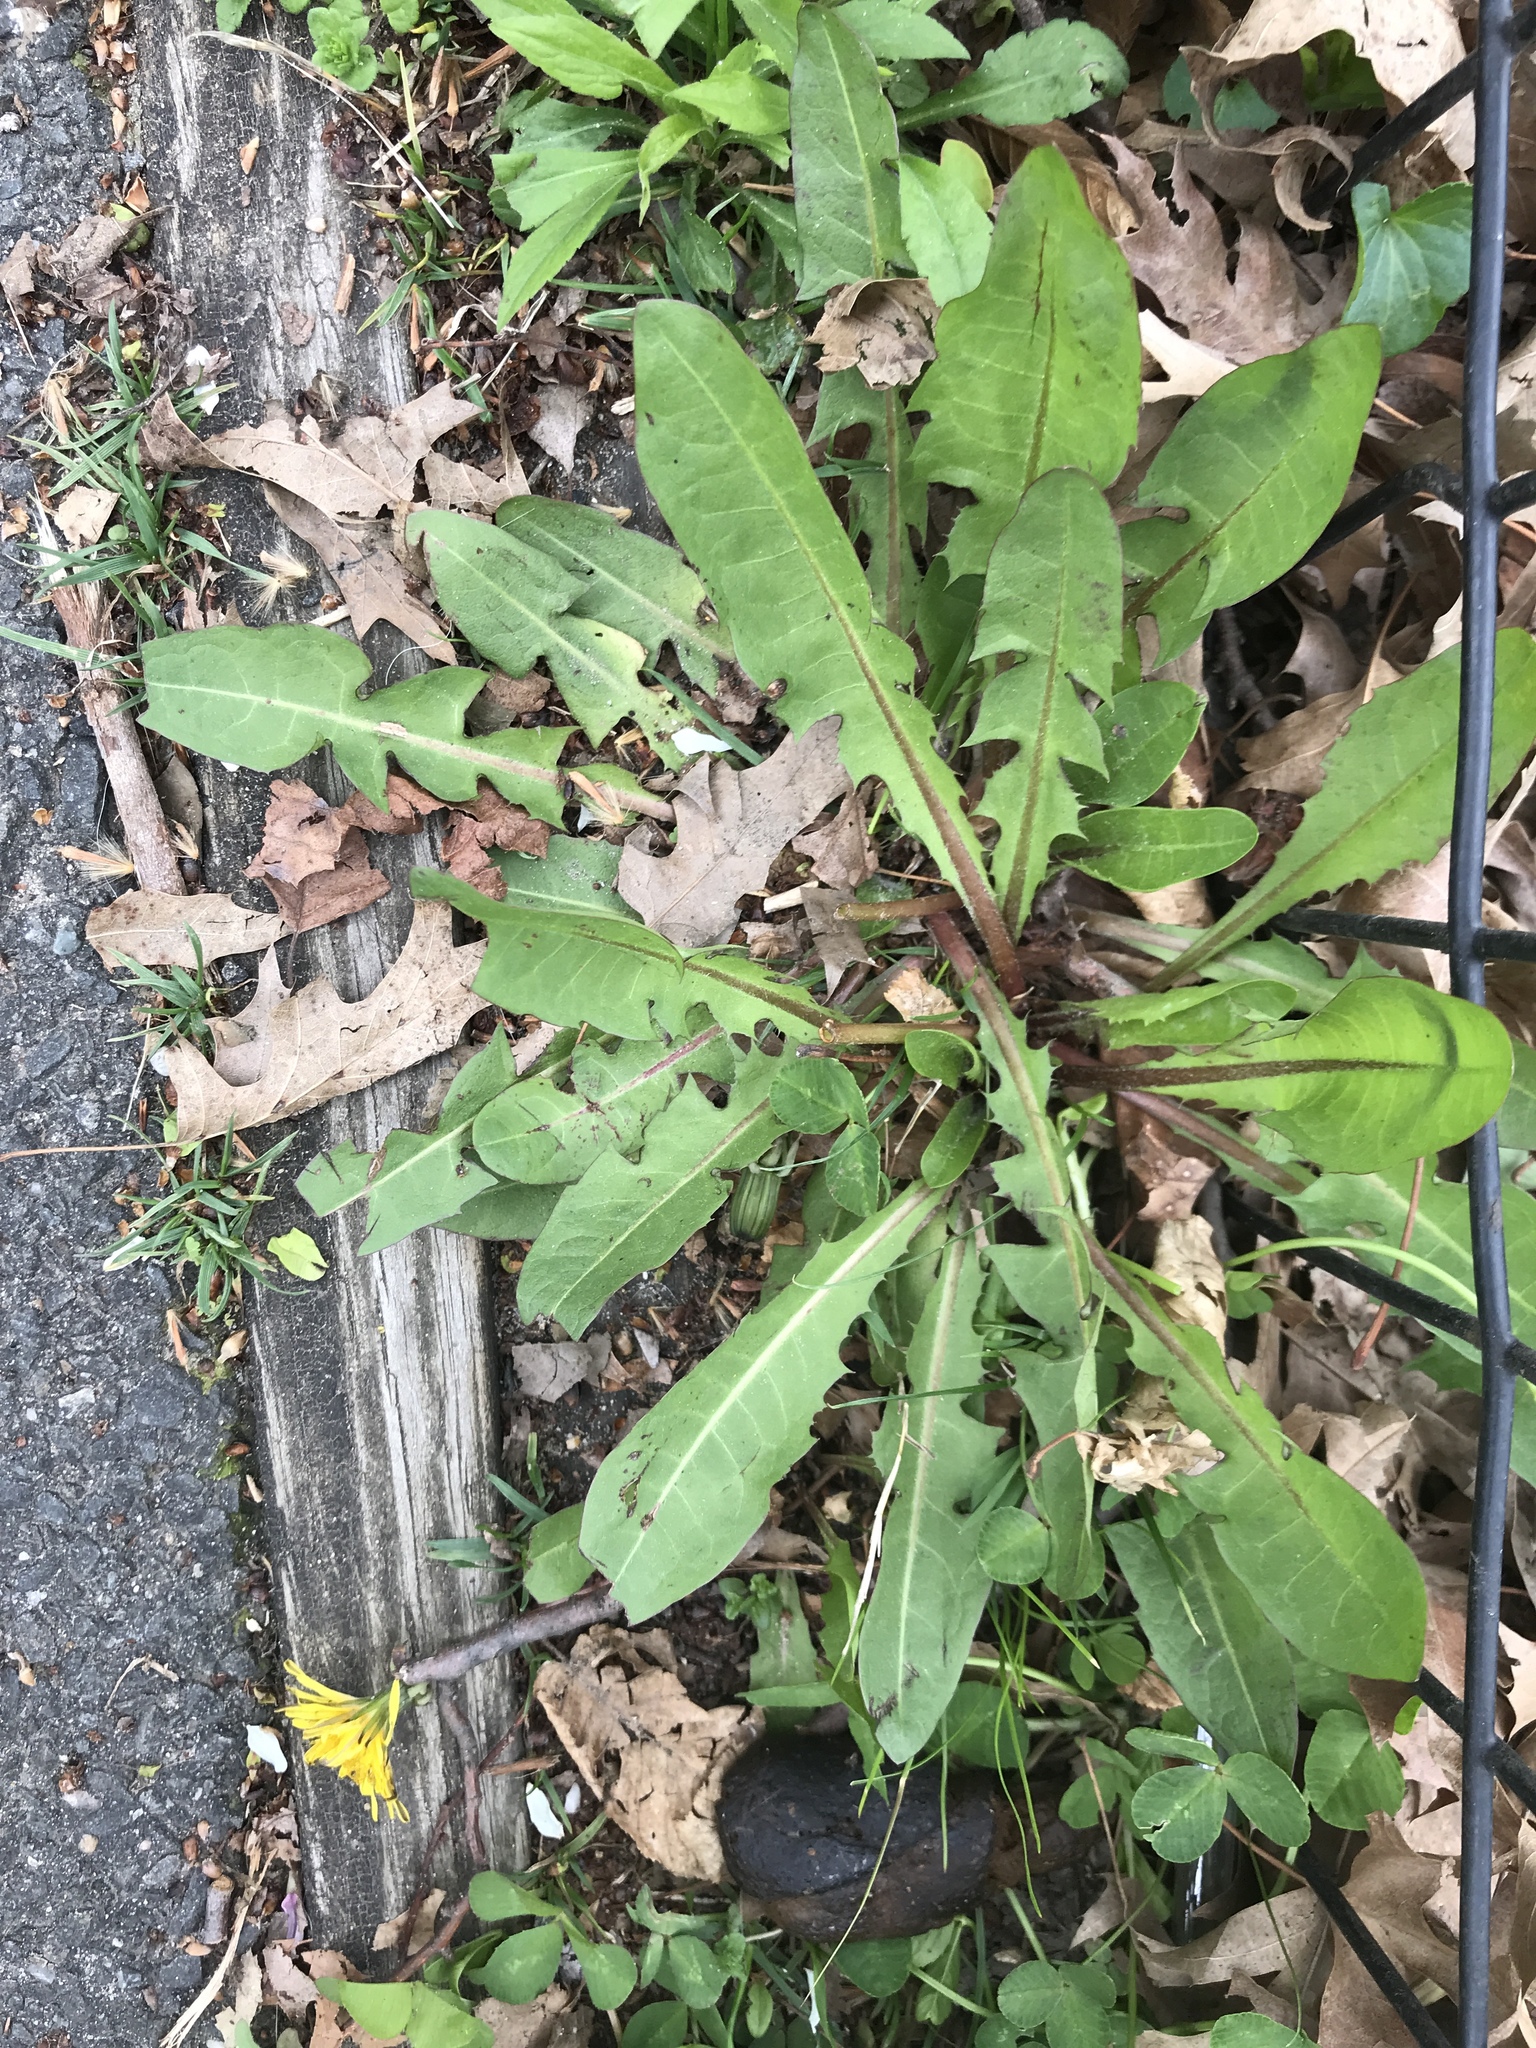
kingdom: Plantae
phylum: Tracheophyta
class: Magnoliopsida
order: Asterales
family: Asteraceae
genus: Taraxacum
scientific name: Taraxacum officinale
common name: Common dandelion
